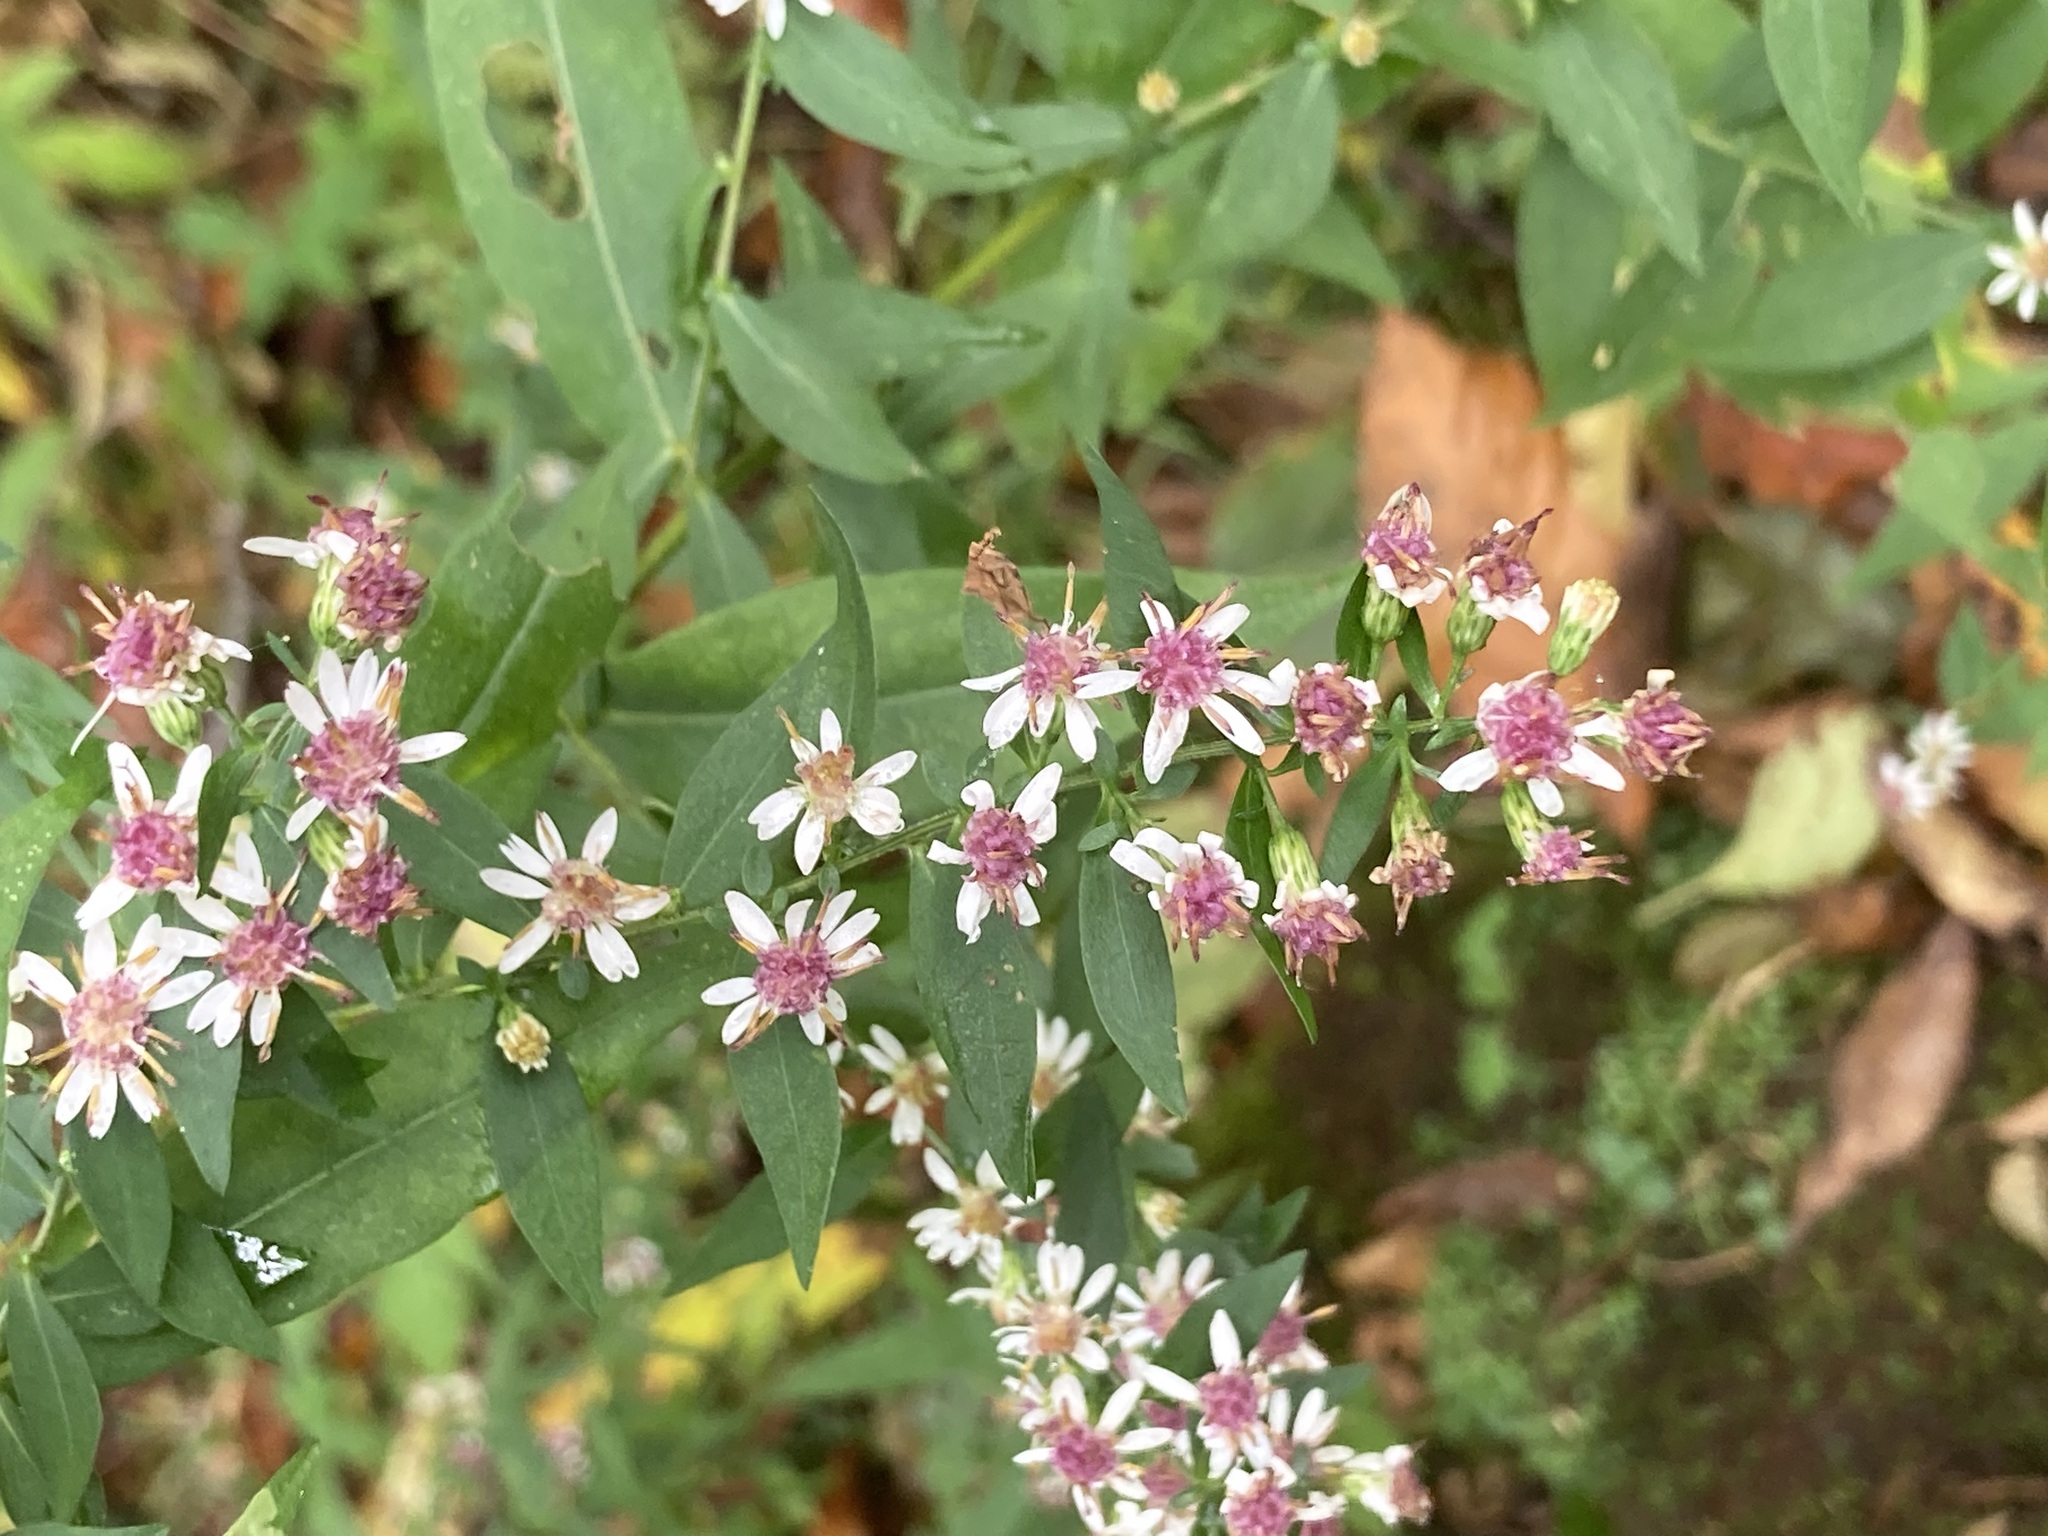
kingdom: Plantae
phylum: Tracheophyta
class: Magnoliopsida
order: Asterales
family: Asteraceae
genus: Symphyotrichum
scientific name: Symphyotrichum lateriflorum
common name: Calico aster
